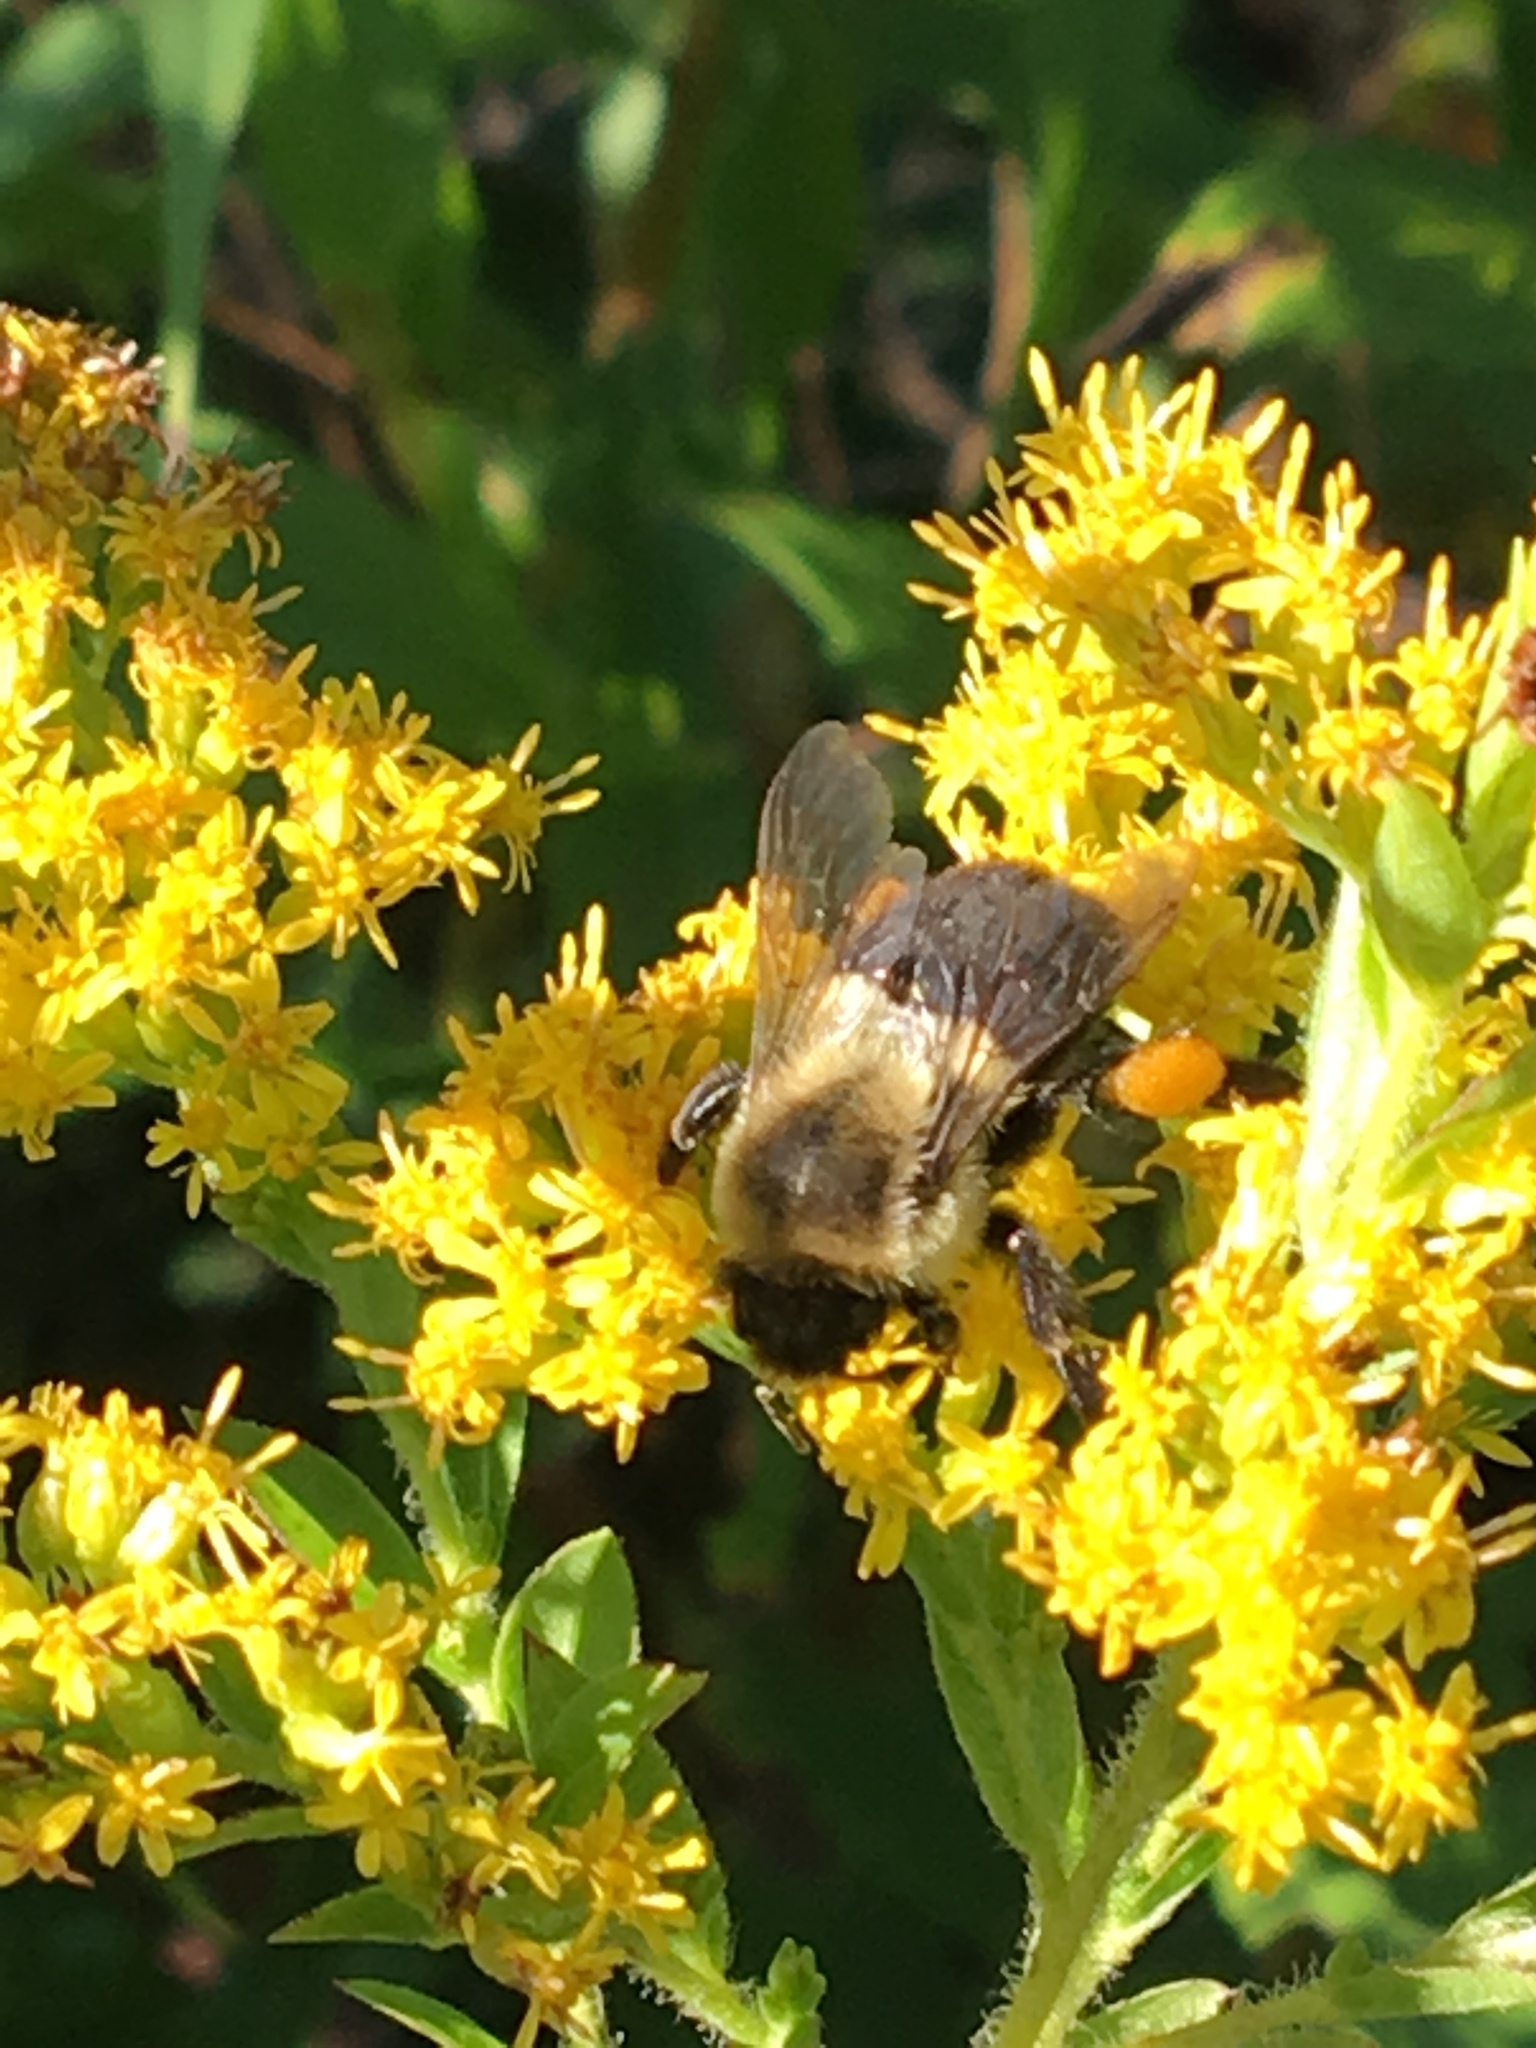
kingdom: Animalia
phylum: Arthropoda
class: Insecta
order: Hymenoptera
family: Apidae
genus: Bombus
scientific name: Bombus impatiens
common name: Common eastern bumble bee
